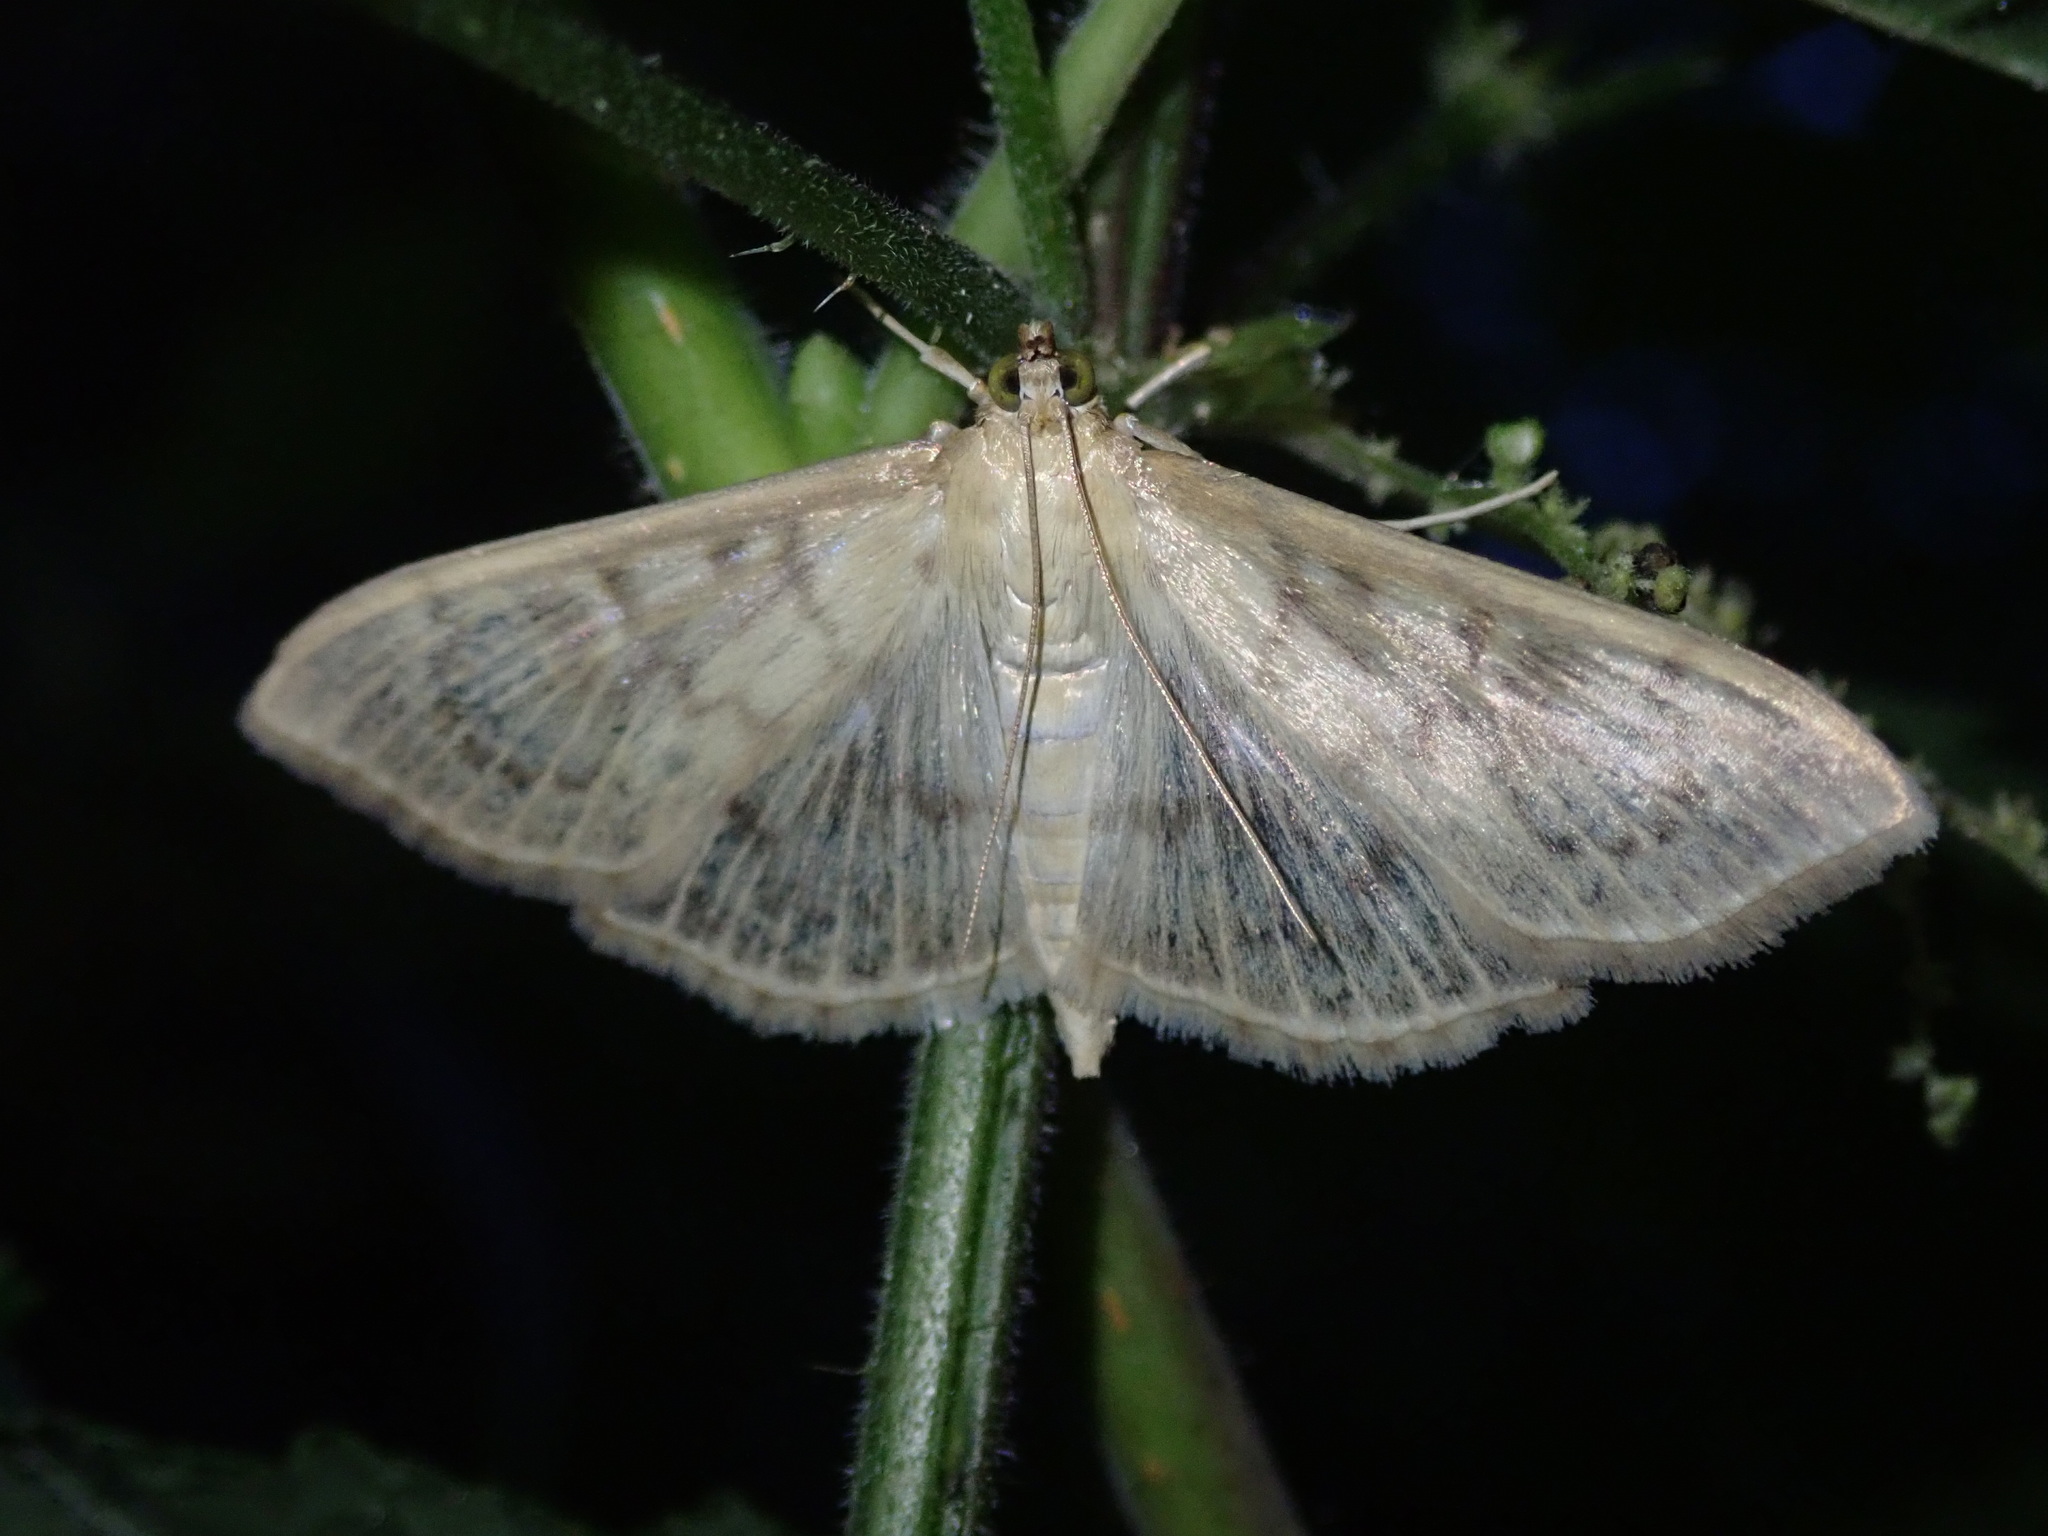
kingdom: Animalia
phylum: Arthropoda
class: Insecta
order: Lepidoptera
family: Crambidae
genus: Patania
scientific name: Patania ruralis
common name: Mother of pearl
